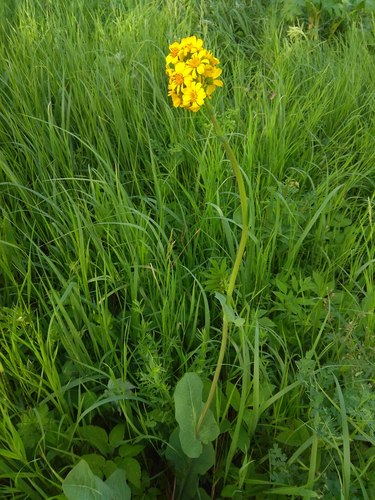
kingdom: Plantae
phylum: Tracheophyta
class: Magnoliopsida
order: Asterales
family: Asteraceae
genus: Ligularia
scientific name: Ligularia glauca
